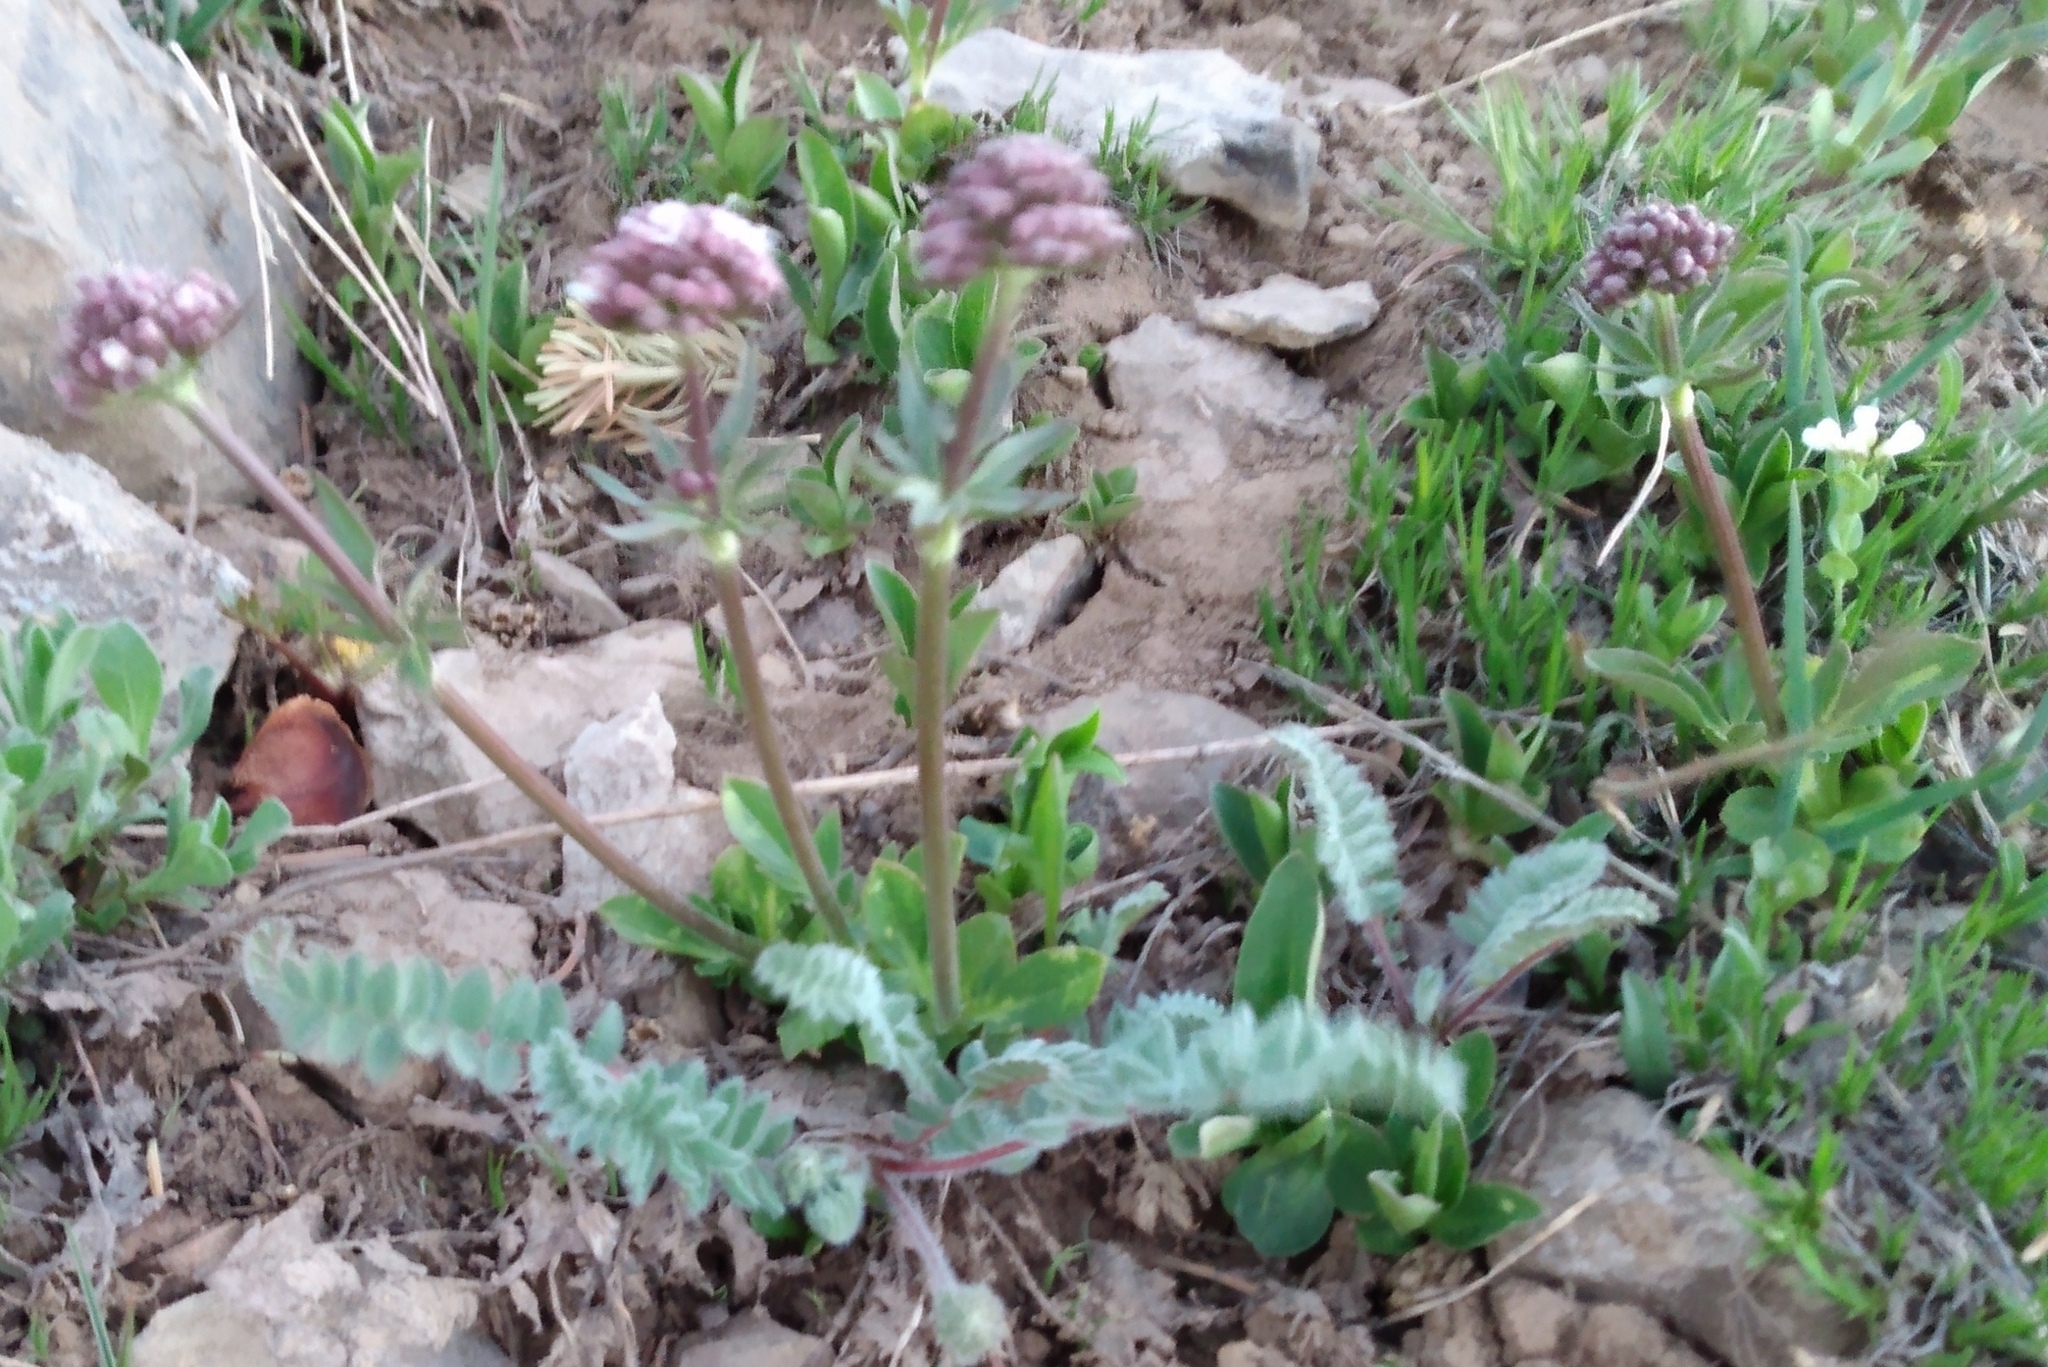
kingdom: Plantae
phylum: Tracheophyta
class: Magnoliopsida
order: Dipsacales
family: Caprifoliaceae
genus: Valeriana
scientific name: Valeriana acutiloba
